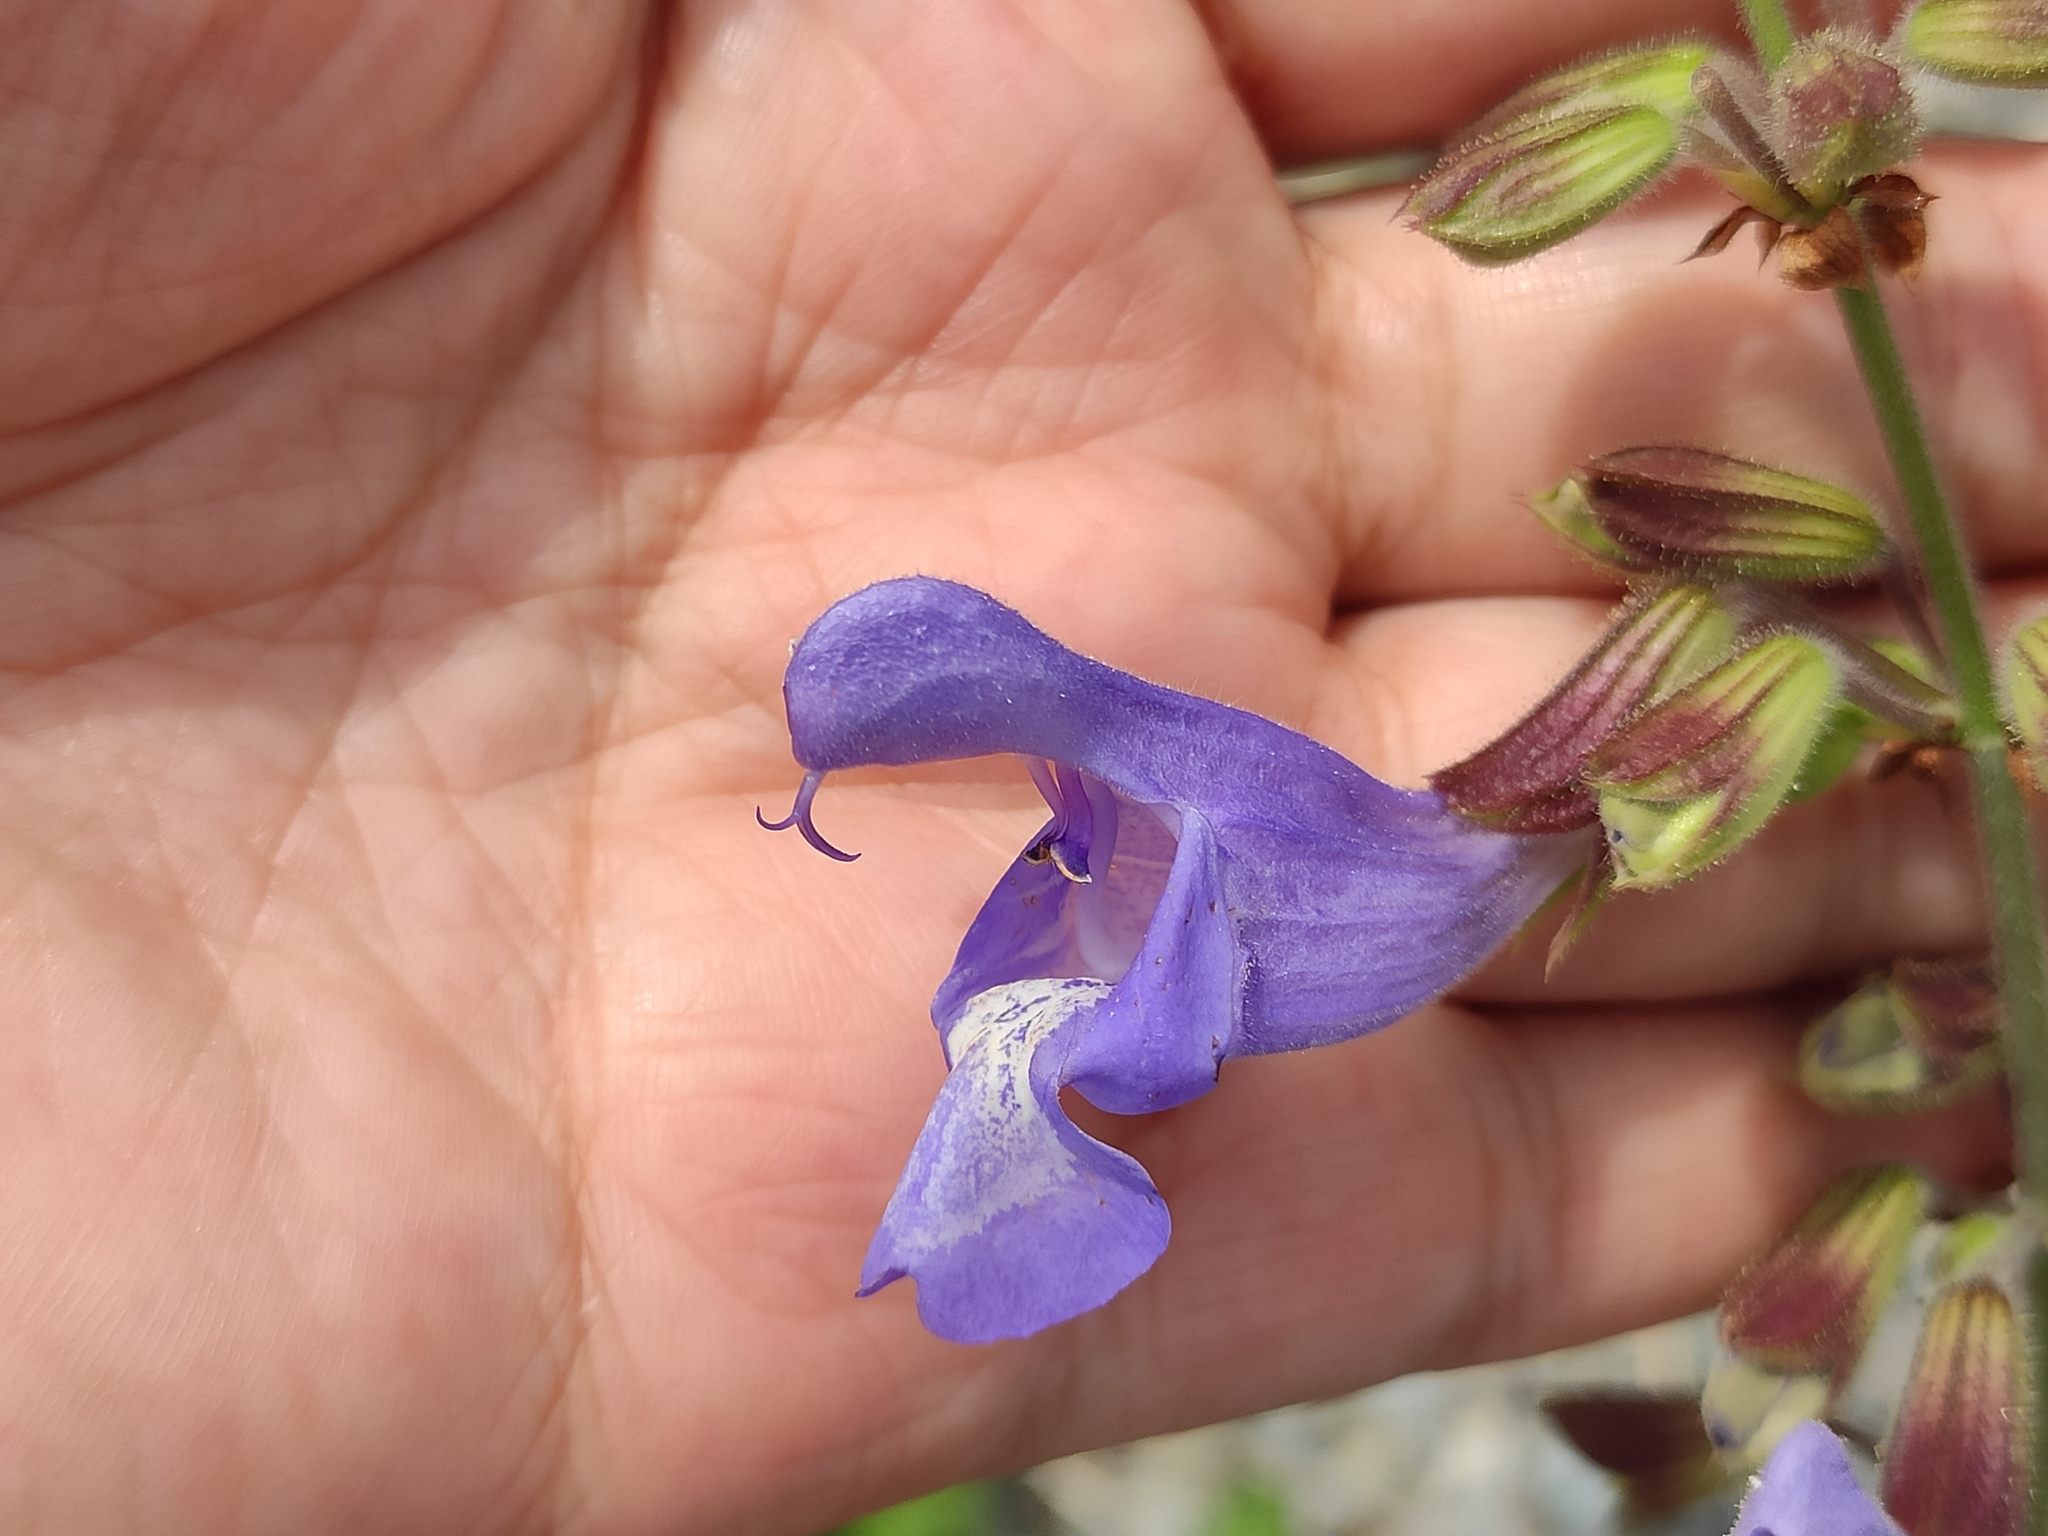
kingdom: Plantae
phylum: Tracheophyta
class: Magnoliopsida
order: Lamiales
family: Lamiaceae
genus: Salvia
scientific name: Salvia ringens
